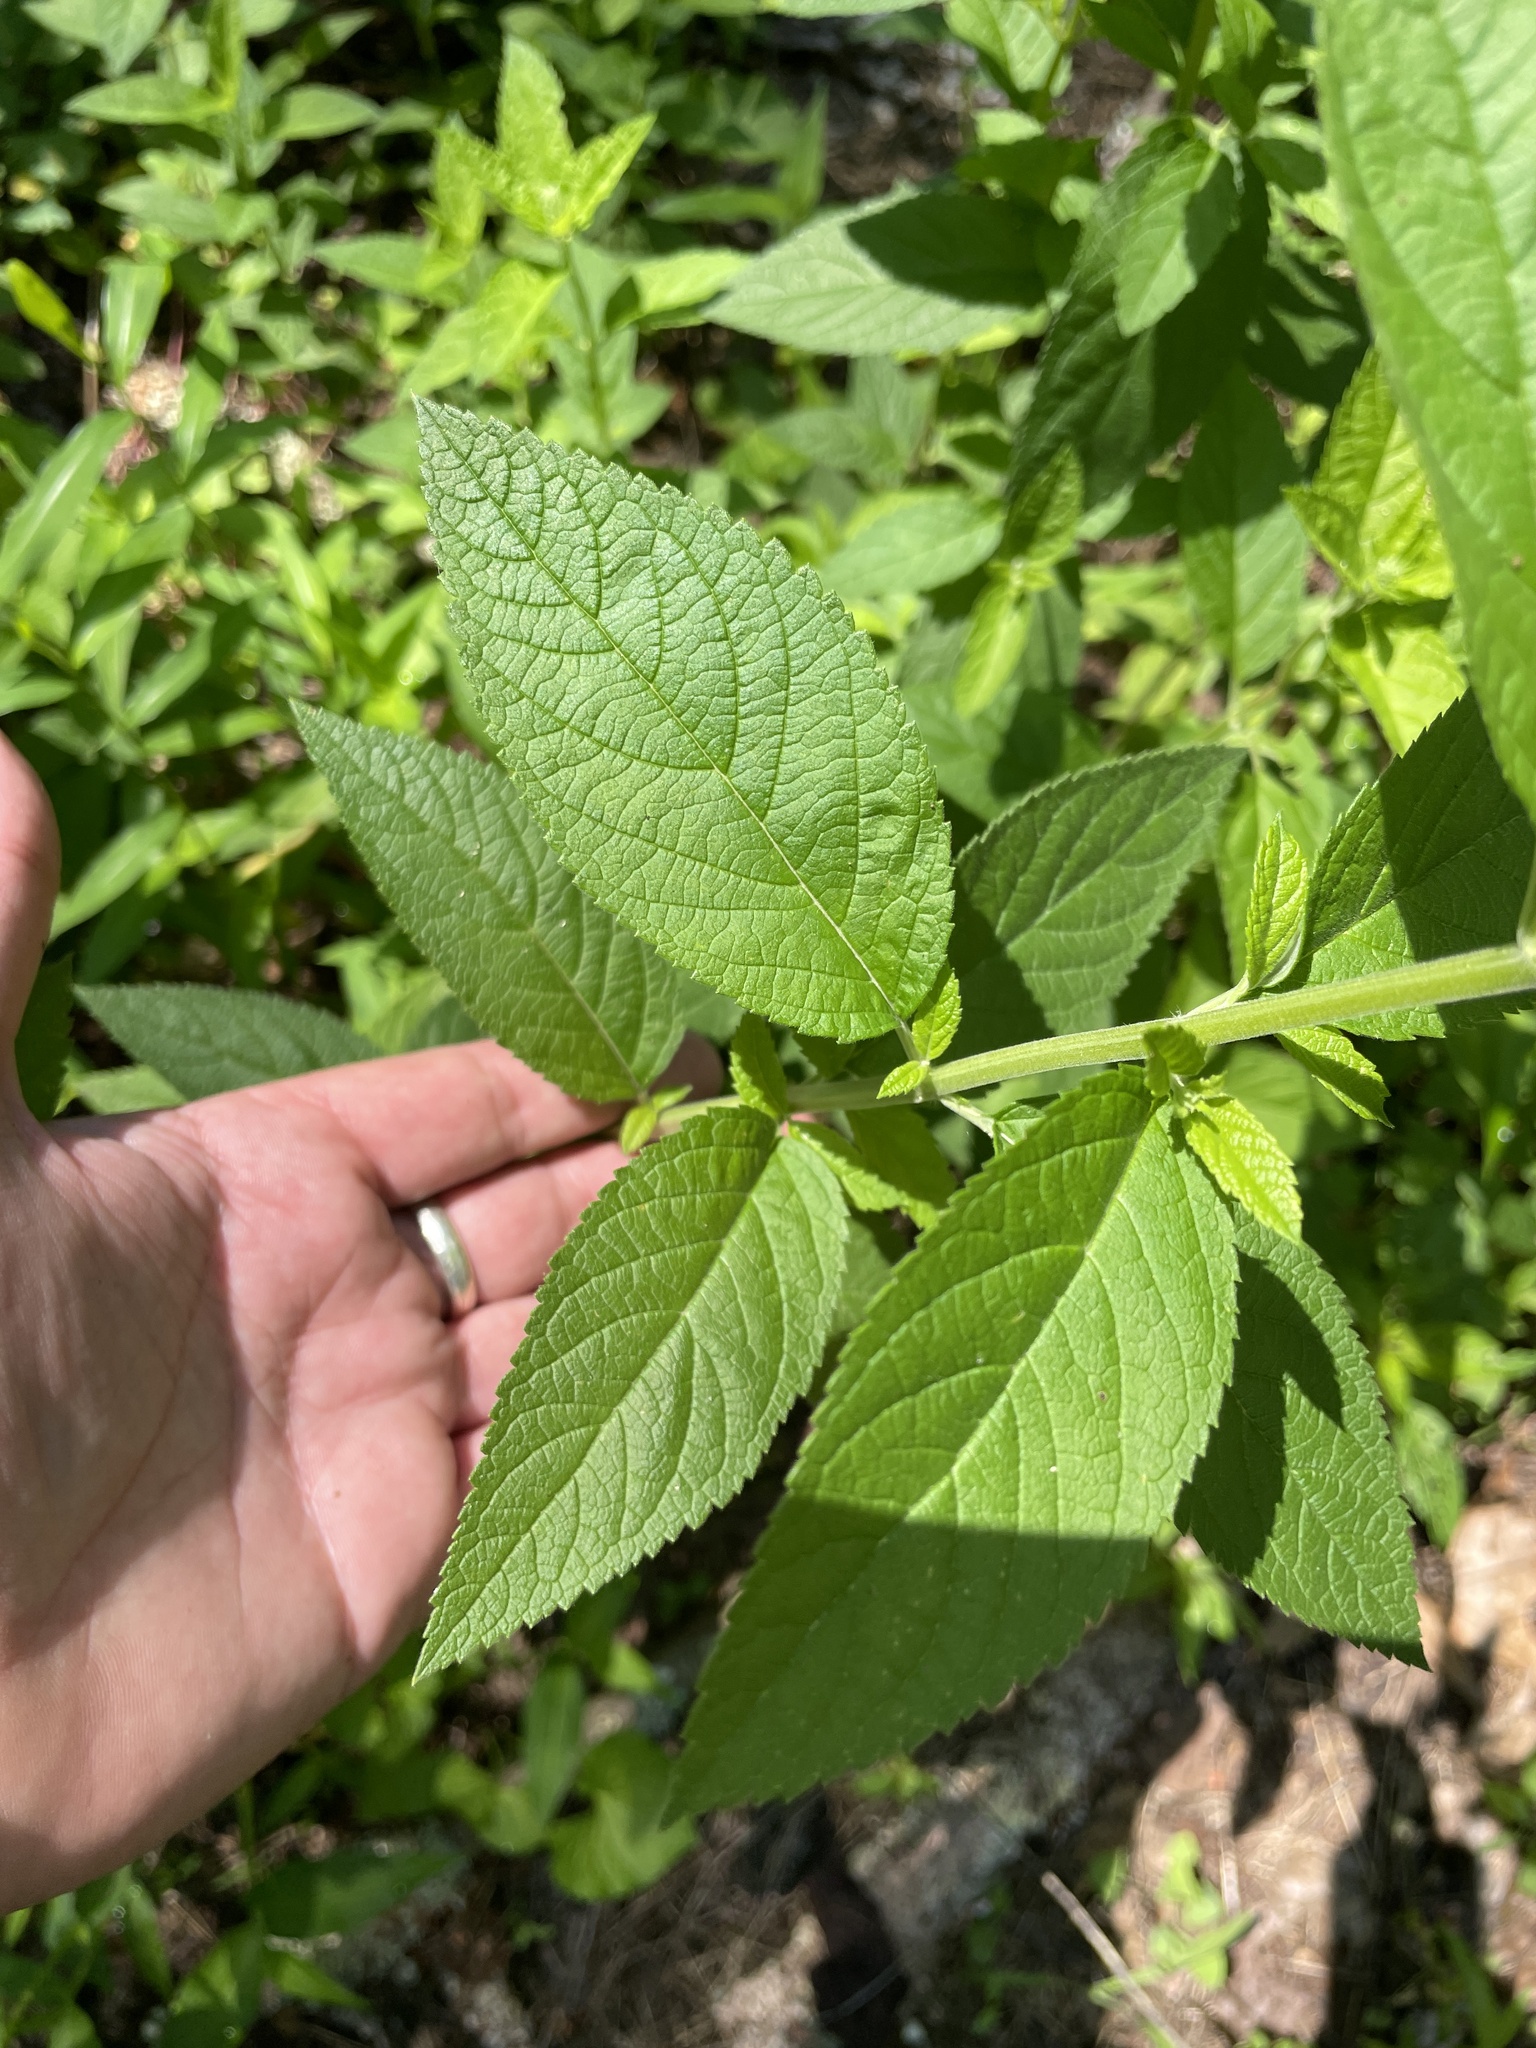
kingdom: Plantae
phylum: Tracheophyta
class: Magnoliopsida
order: Lamiales
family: Lamiaceae
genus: Teucrium
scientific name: Teucrium canadense
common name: American germander
